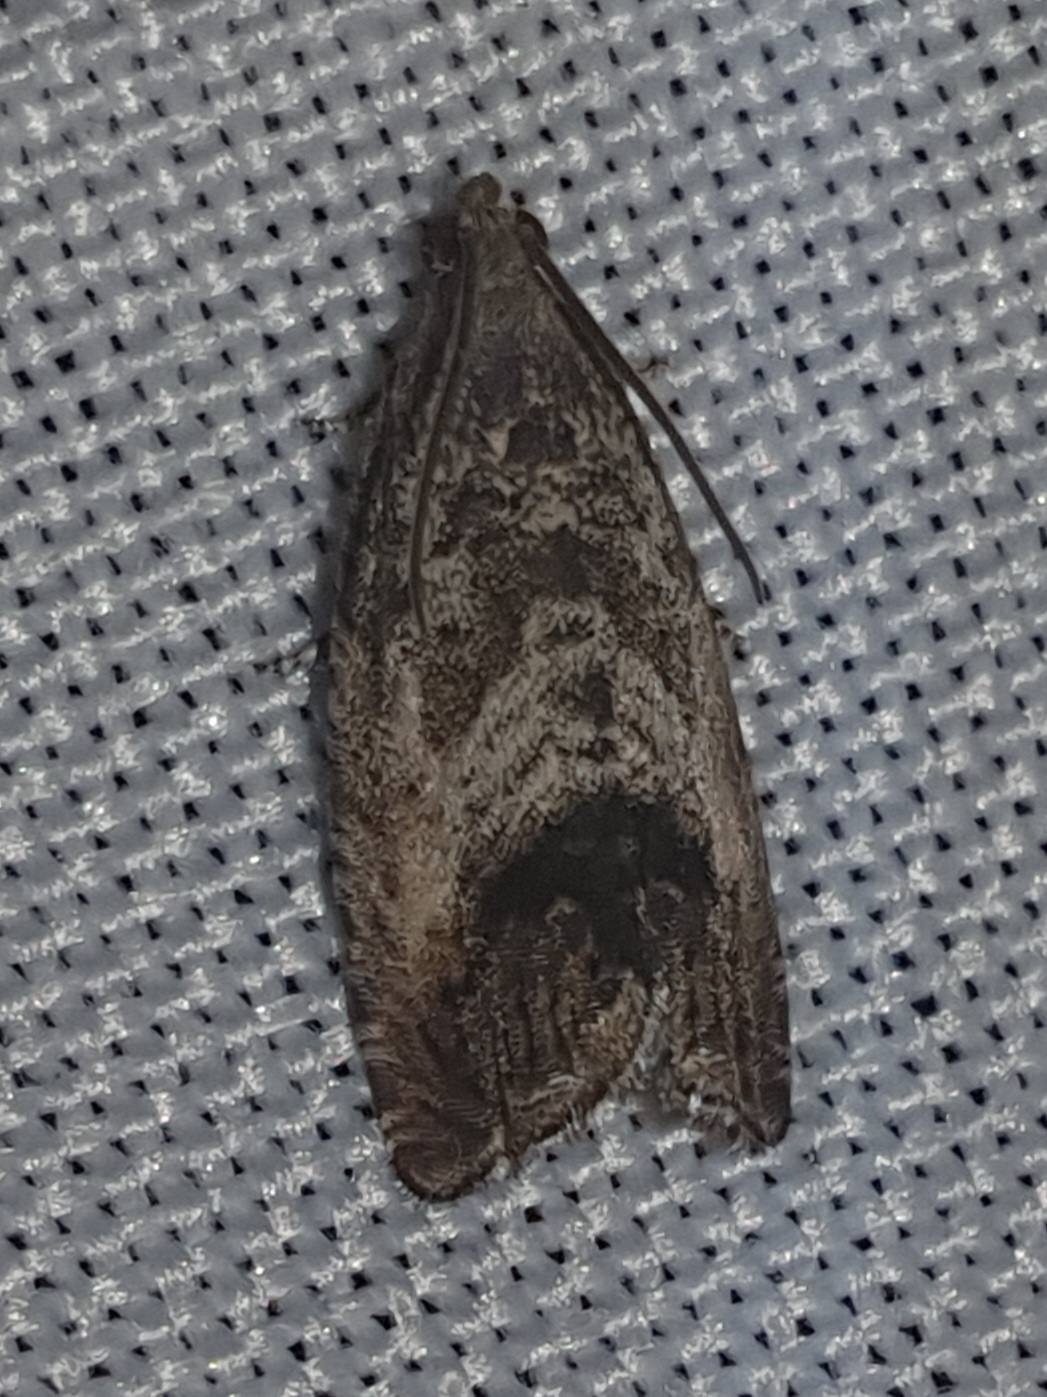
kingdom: Animalia
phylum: Arthropoda
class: Insecta
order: Lepidoptera
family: Tortricidae
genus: Cydia
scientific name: Cydia splendana
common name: De: kastanienwickler, eichenwickler es: oruga de la castaña fr: carpocapse des châtaignes it: cidia o tortrice tardiva delle castagne pt: bichado das castanhas gb: acorn moth, chestnut fruit tortrix
